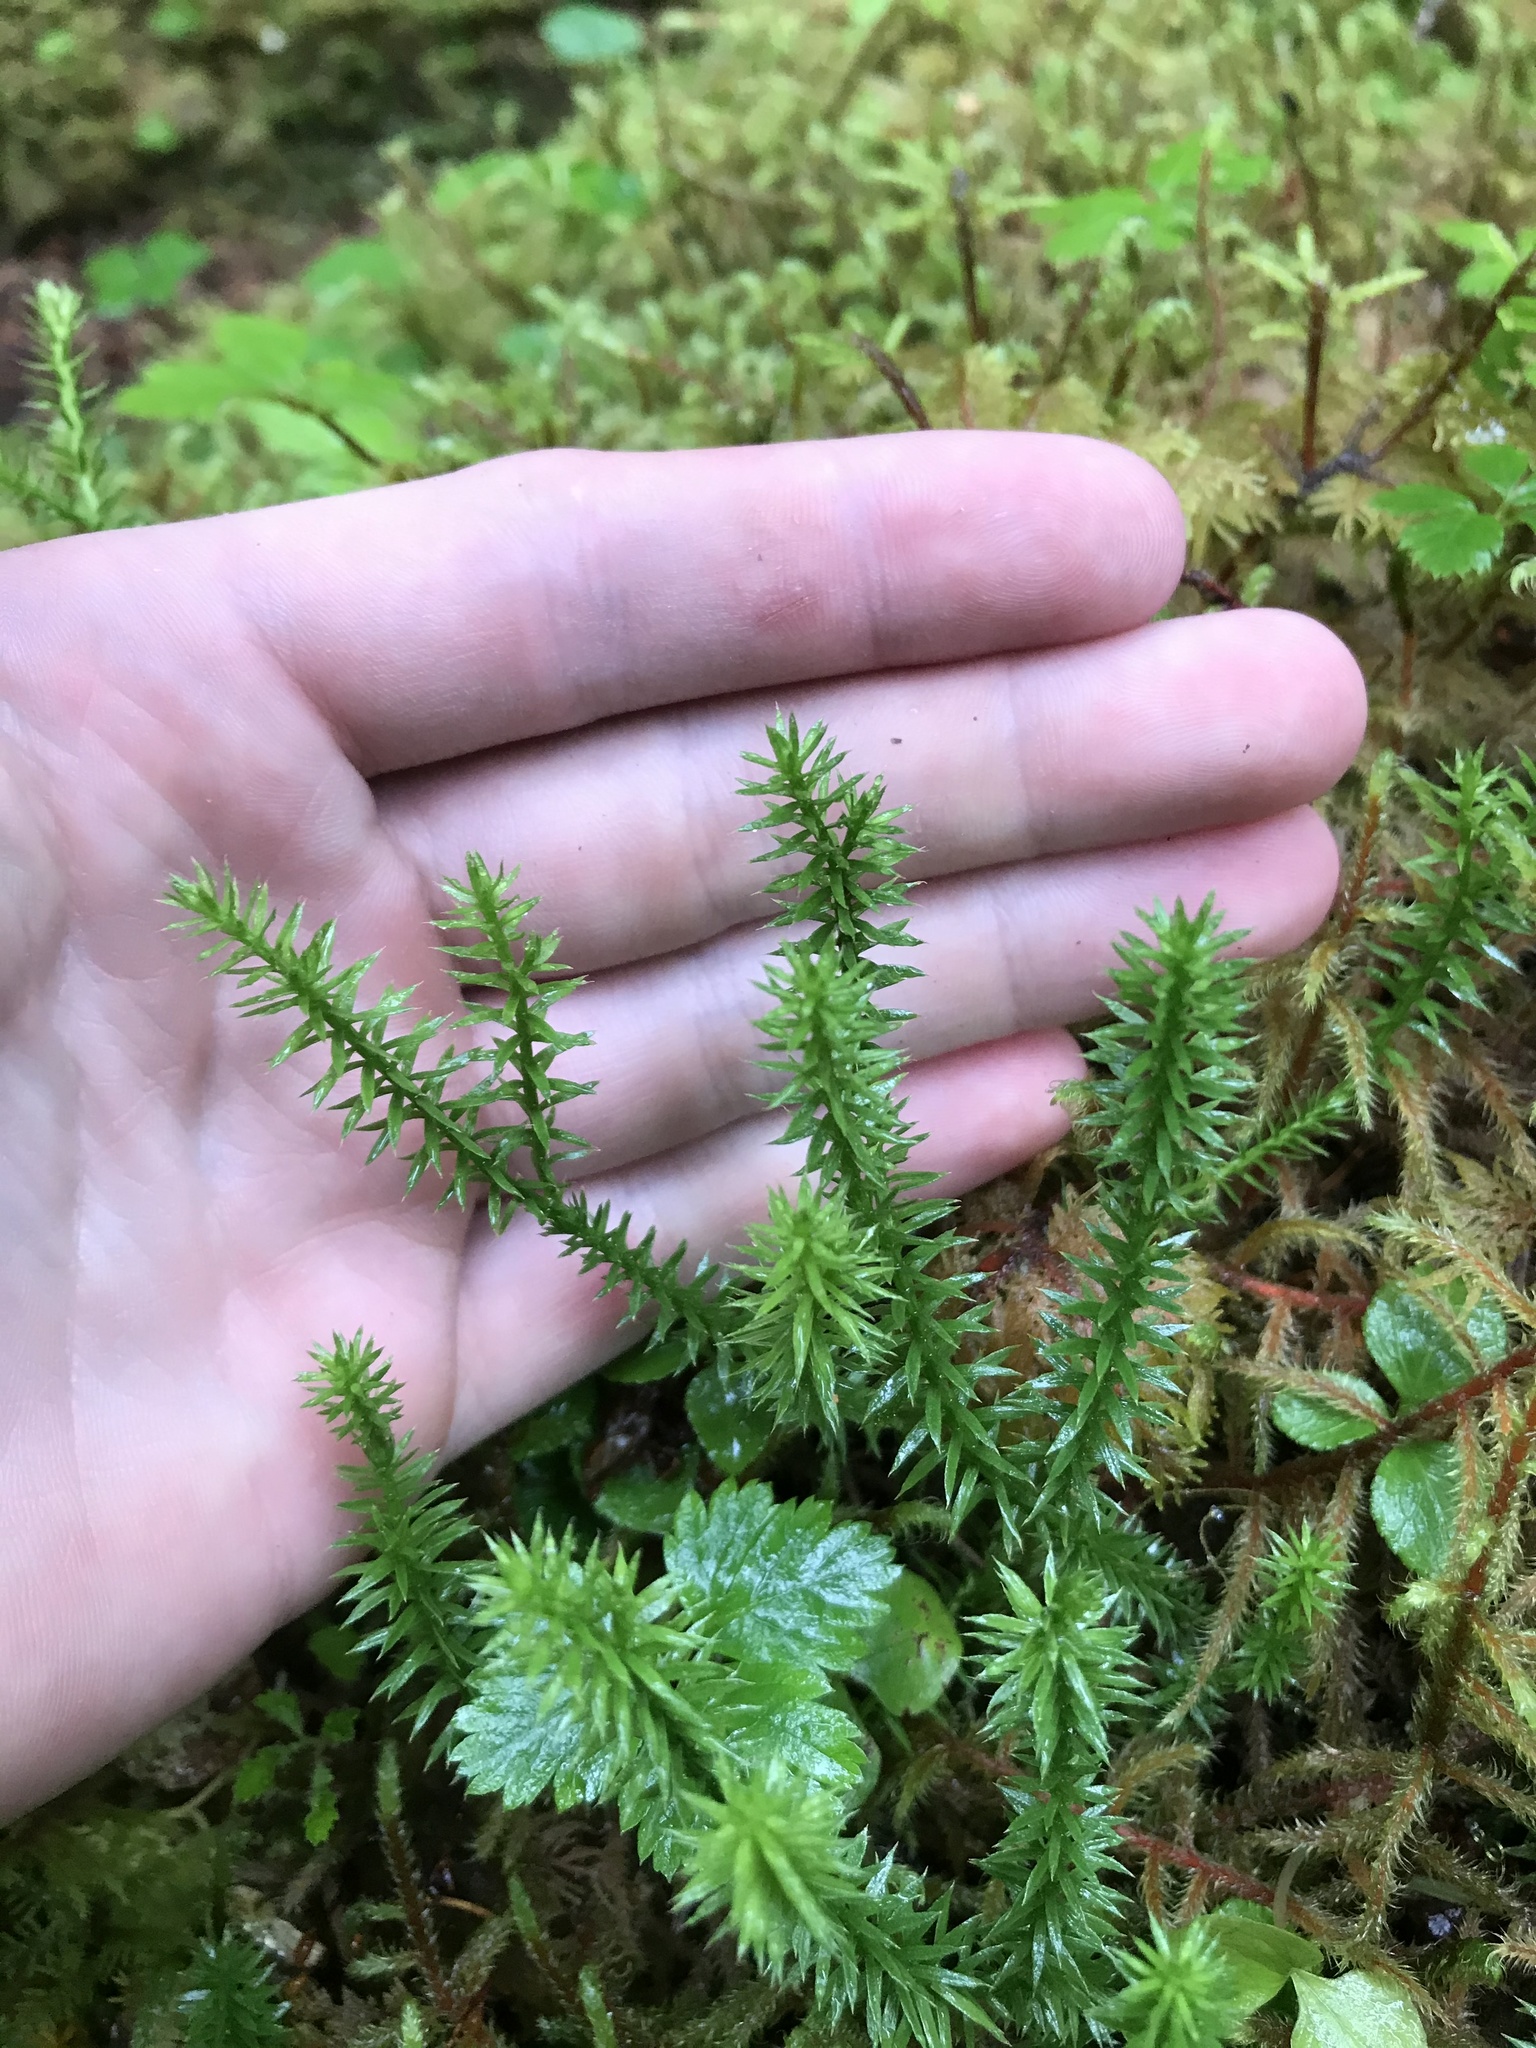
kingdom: Plantae
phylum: Tracheophyta
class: Lycopodiopsida
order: Lycopodiales
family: Lycopodiaceae
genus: Spinulum
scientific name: Spinulum annotinum
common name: Interrupted club-moss
